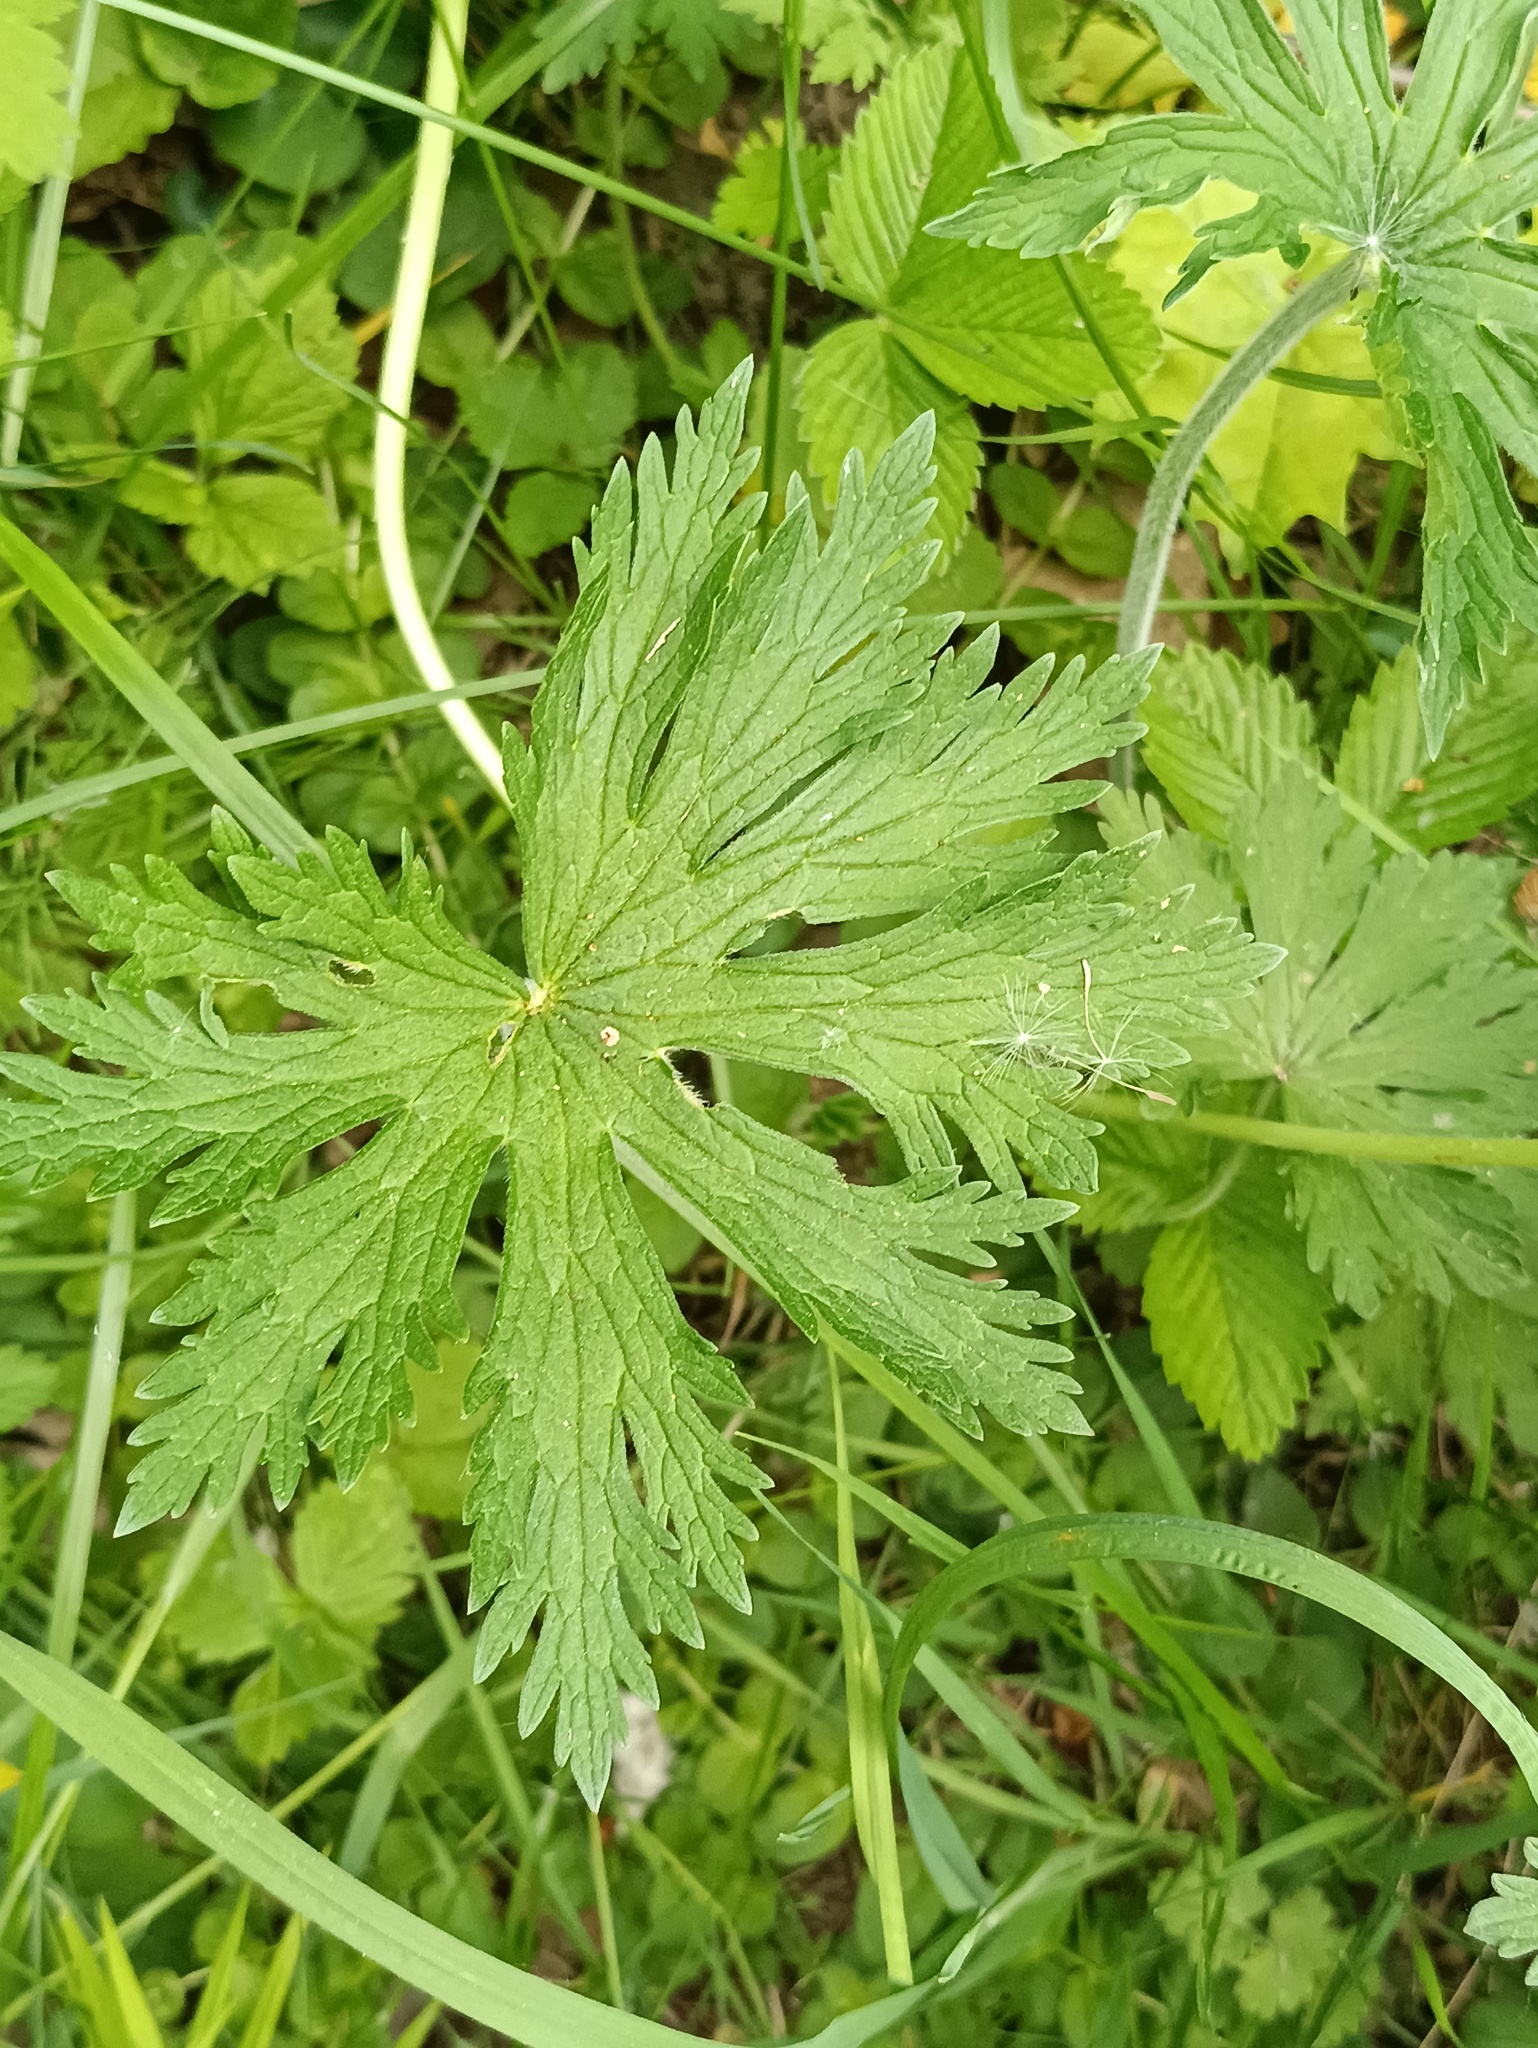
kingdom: Plantae
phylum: Tracheophyta
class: Magnoliopsida
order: Geraniales
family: Geraniaceae
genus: Geranium
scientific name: Geranium pratense
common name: Meadow crane's-bill
